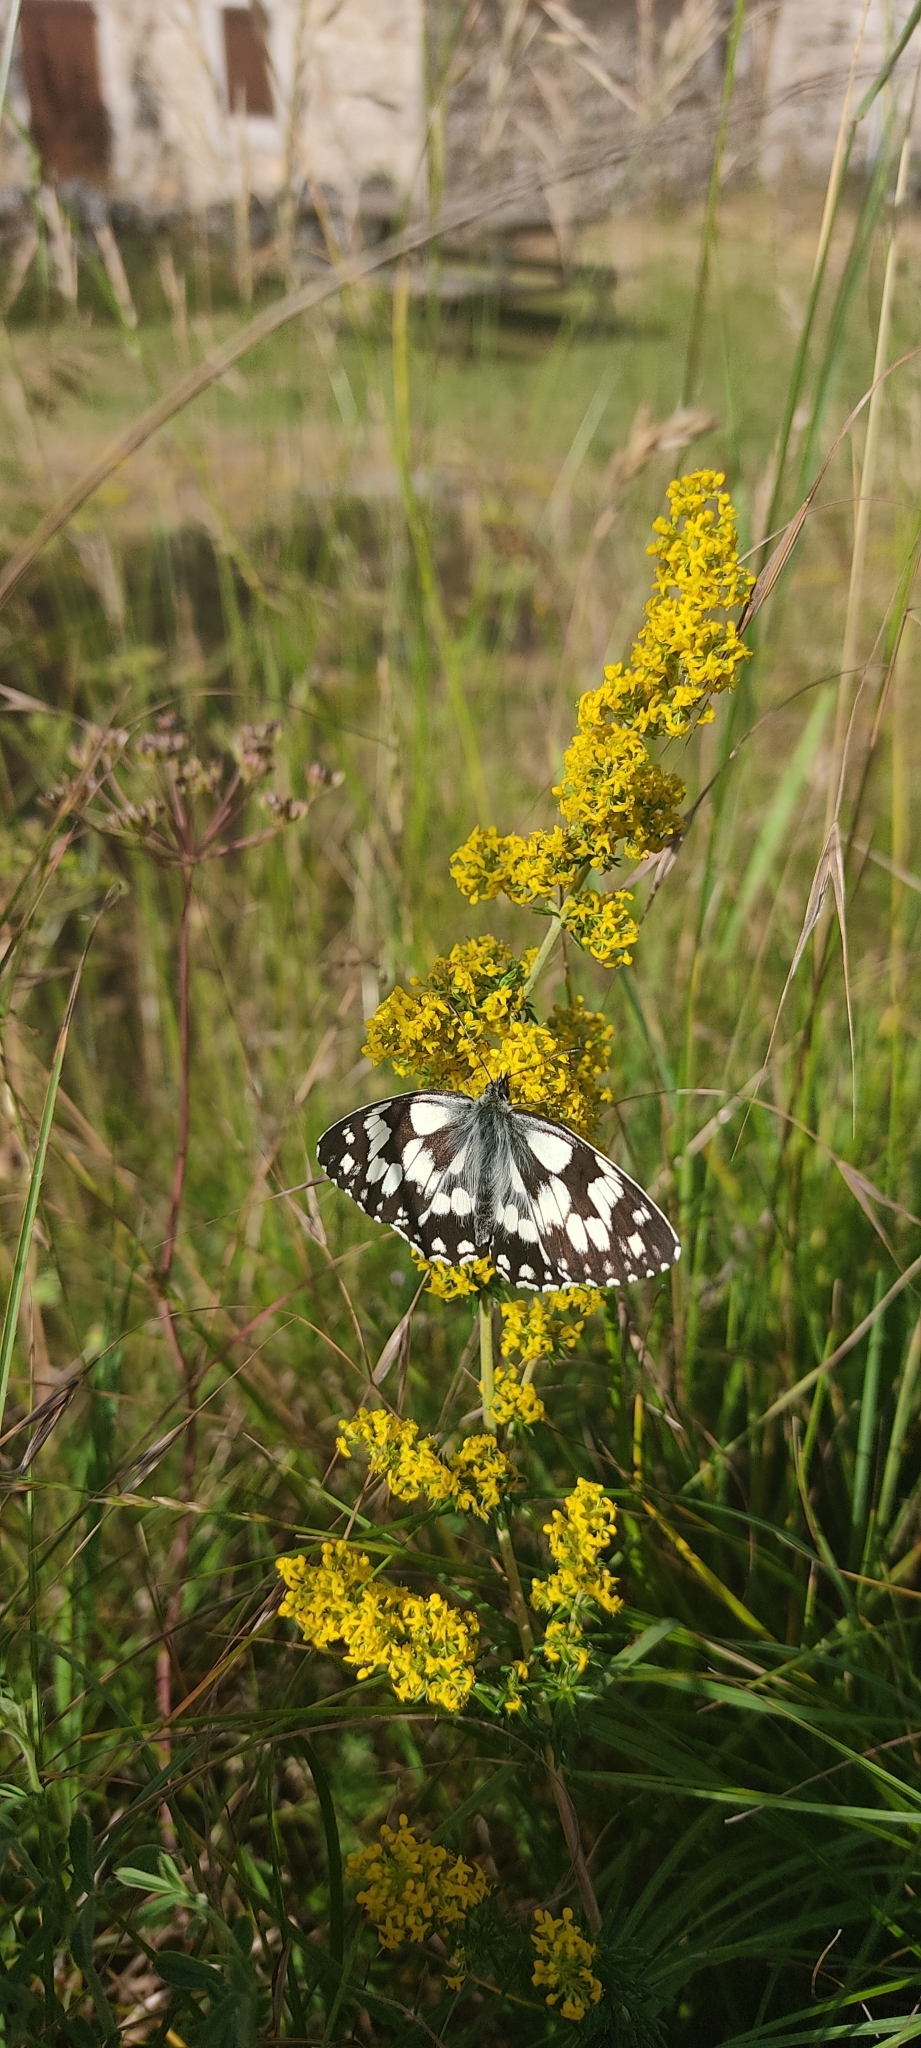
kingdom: Animalia
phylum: Arthropoda
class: Insecta
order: Lepidoptera
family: Nymphalidae
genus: Melanargia
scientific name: Melanargia galathea
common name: Marbled white
